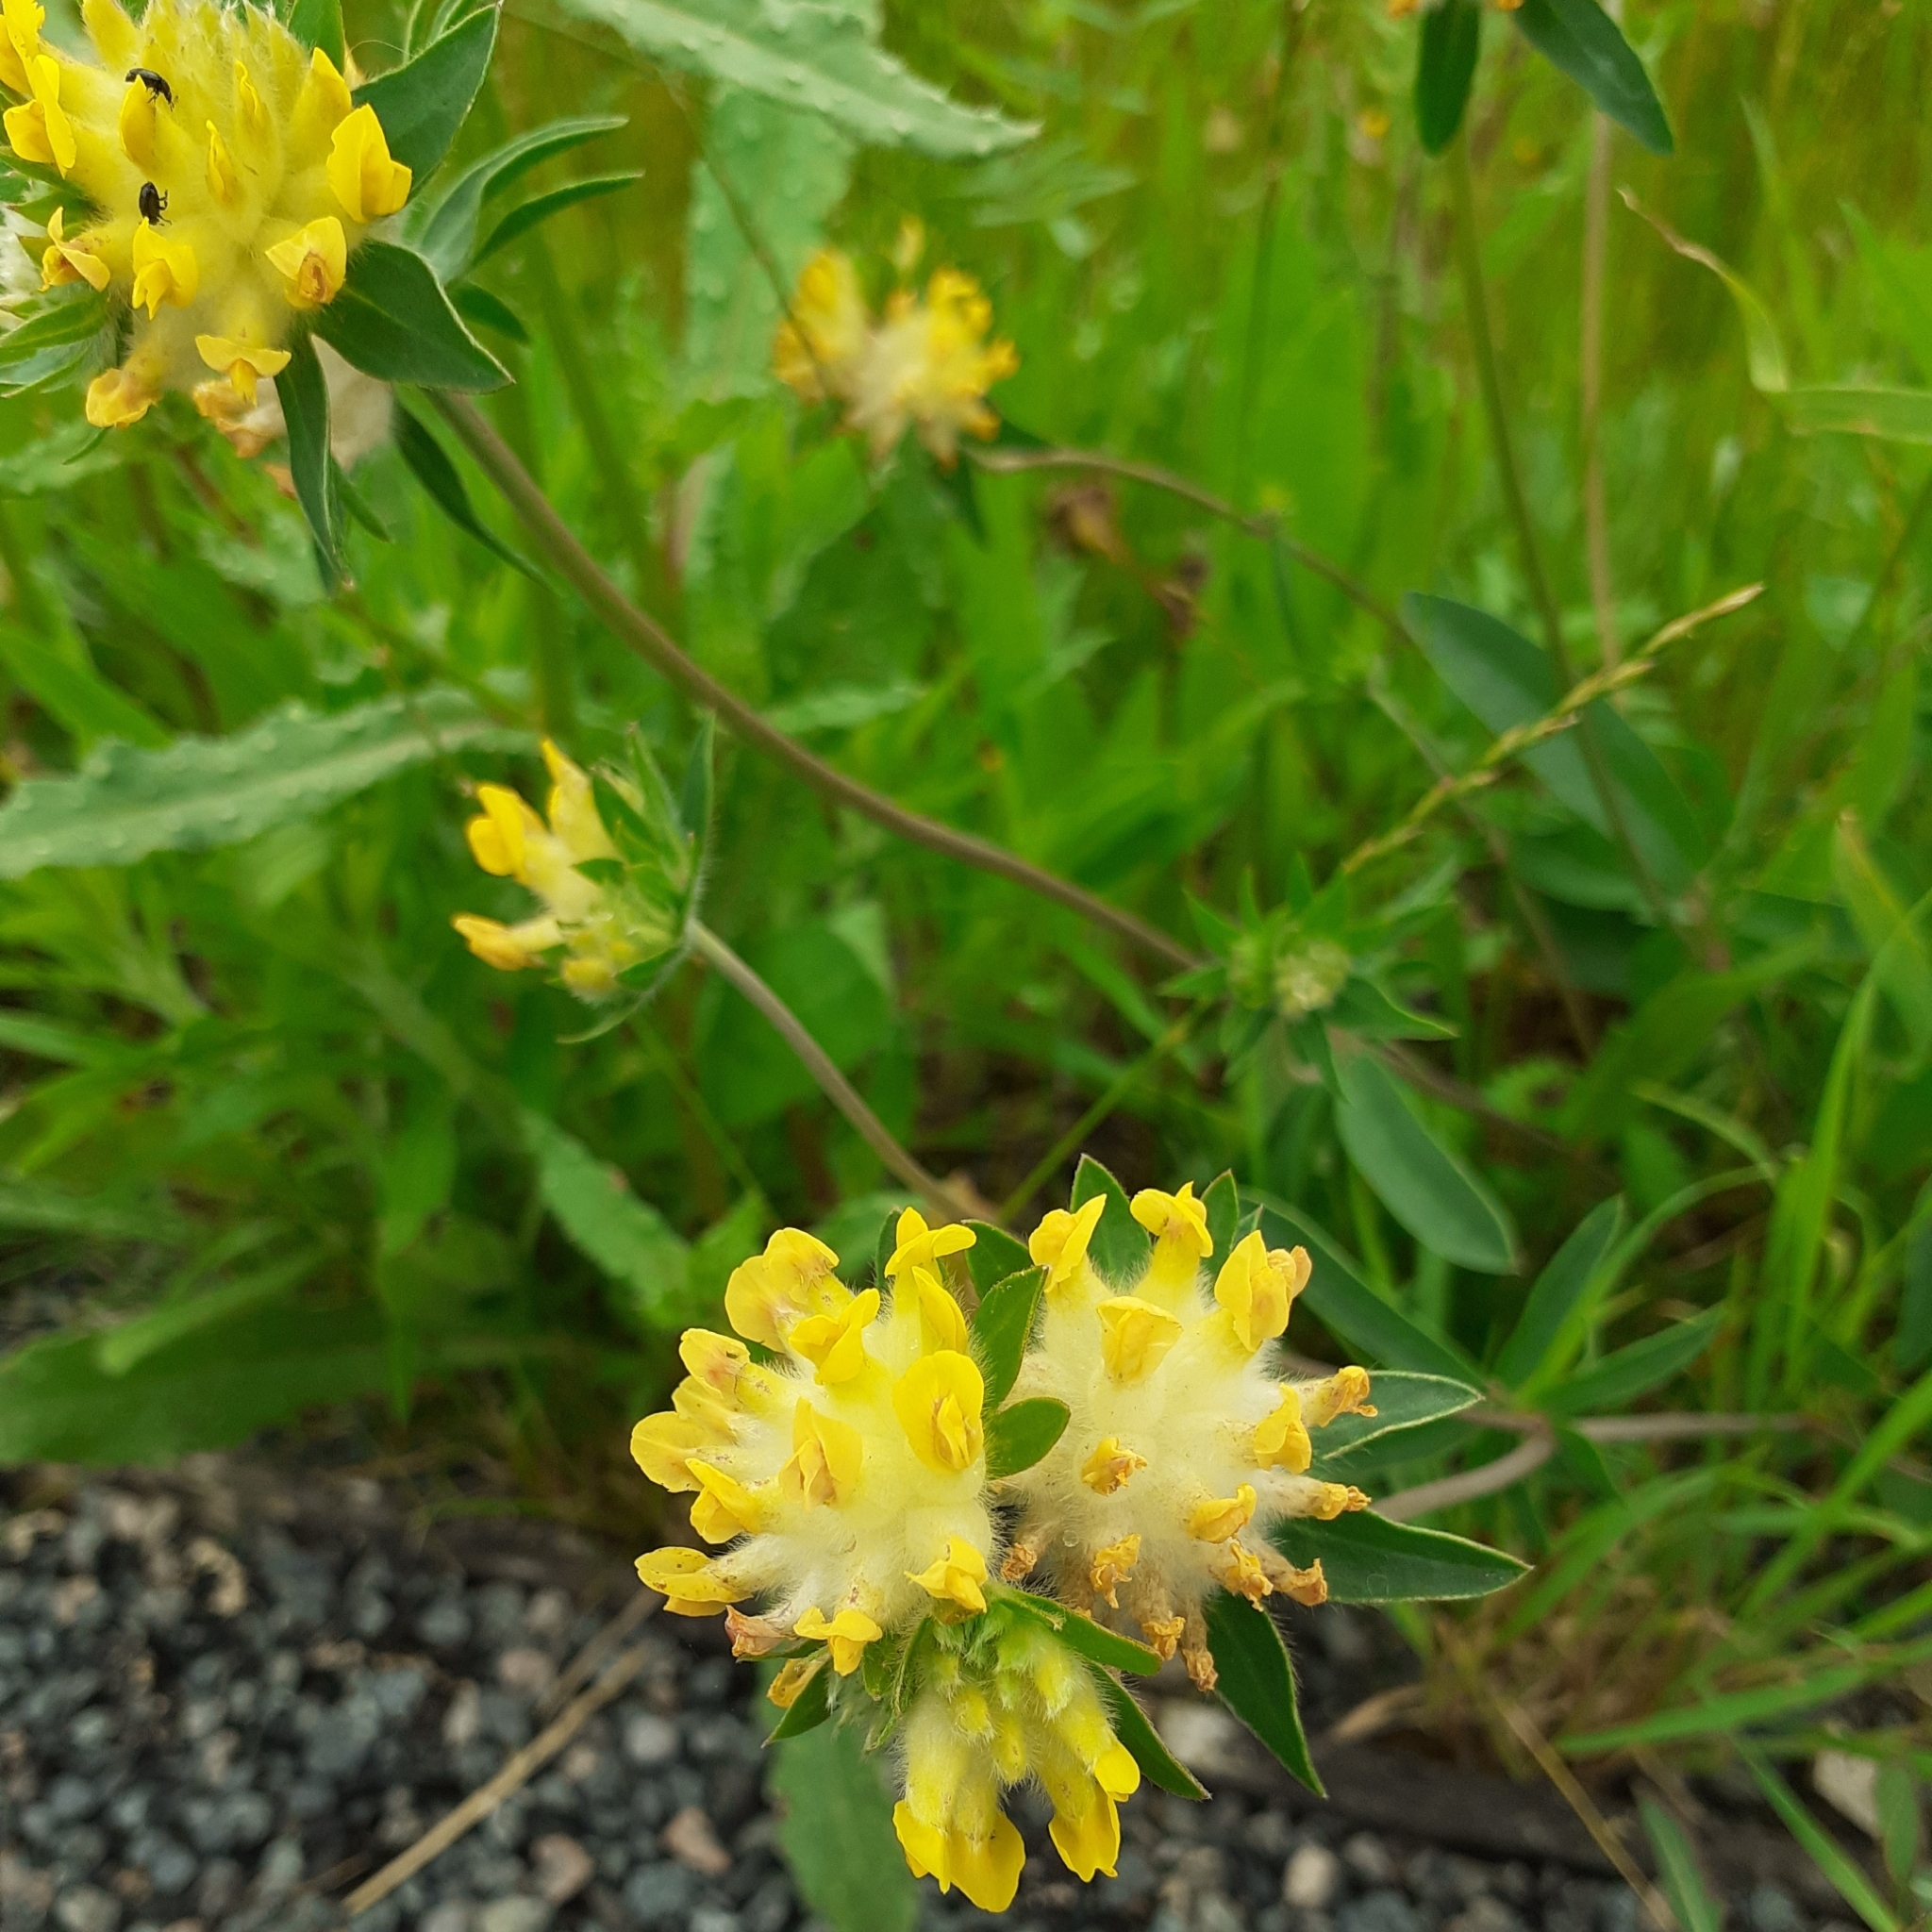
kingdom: Plantae
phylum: Tracheophyta
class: Magnoliopsida
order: Fabales
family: Fabaceae
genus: Anthyllis
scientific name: Anthyllis vulneraria
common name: Kidney vetch
